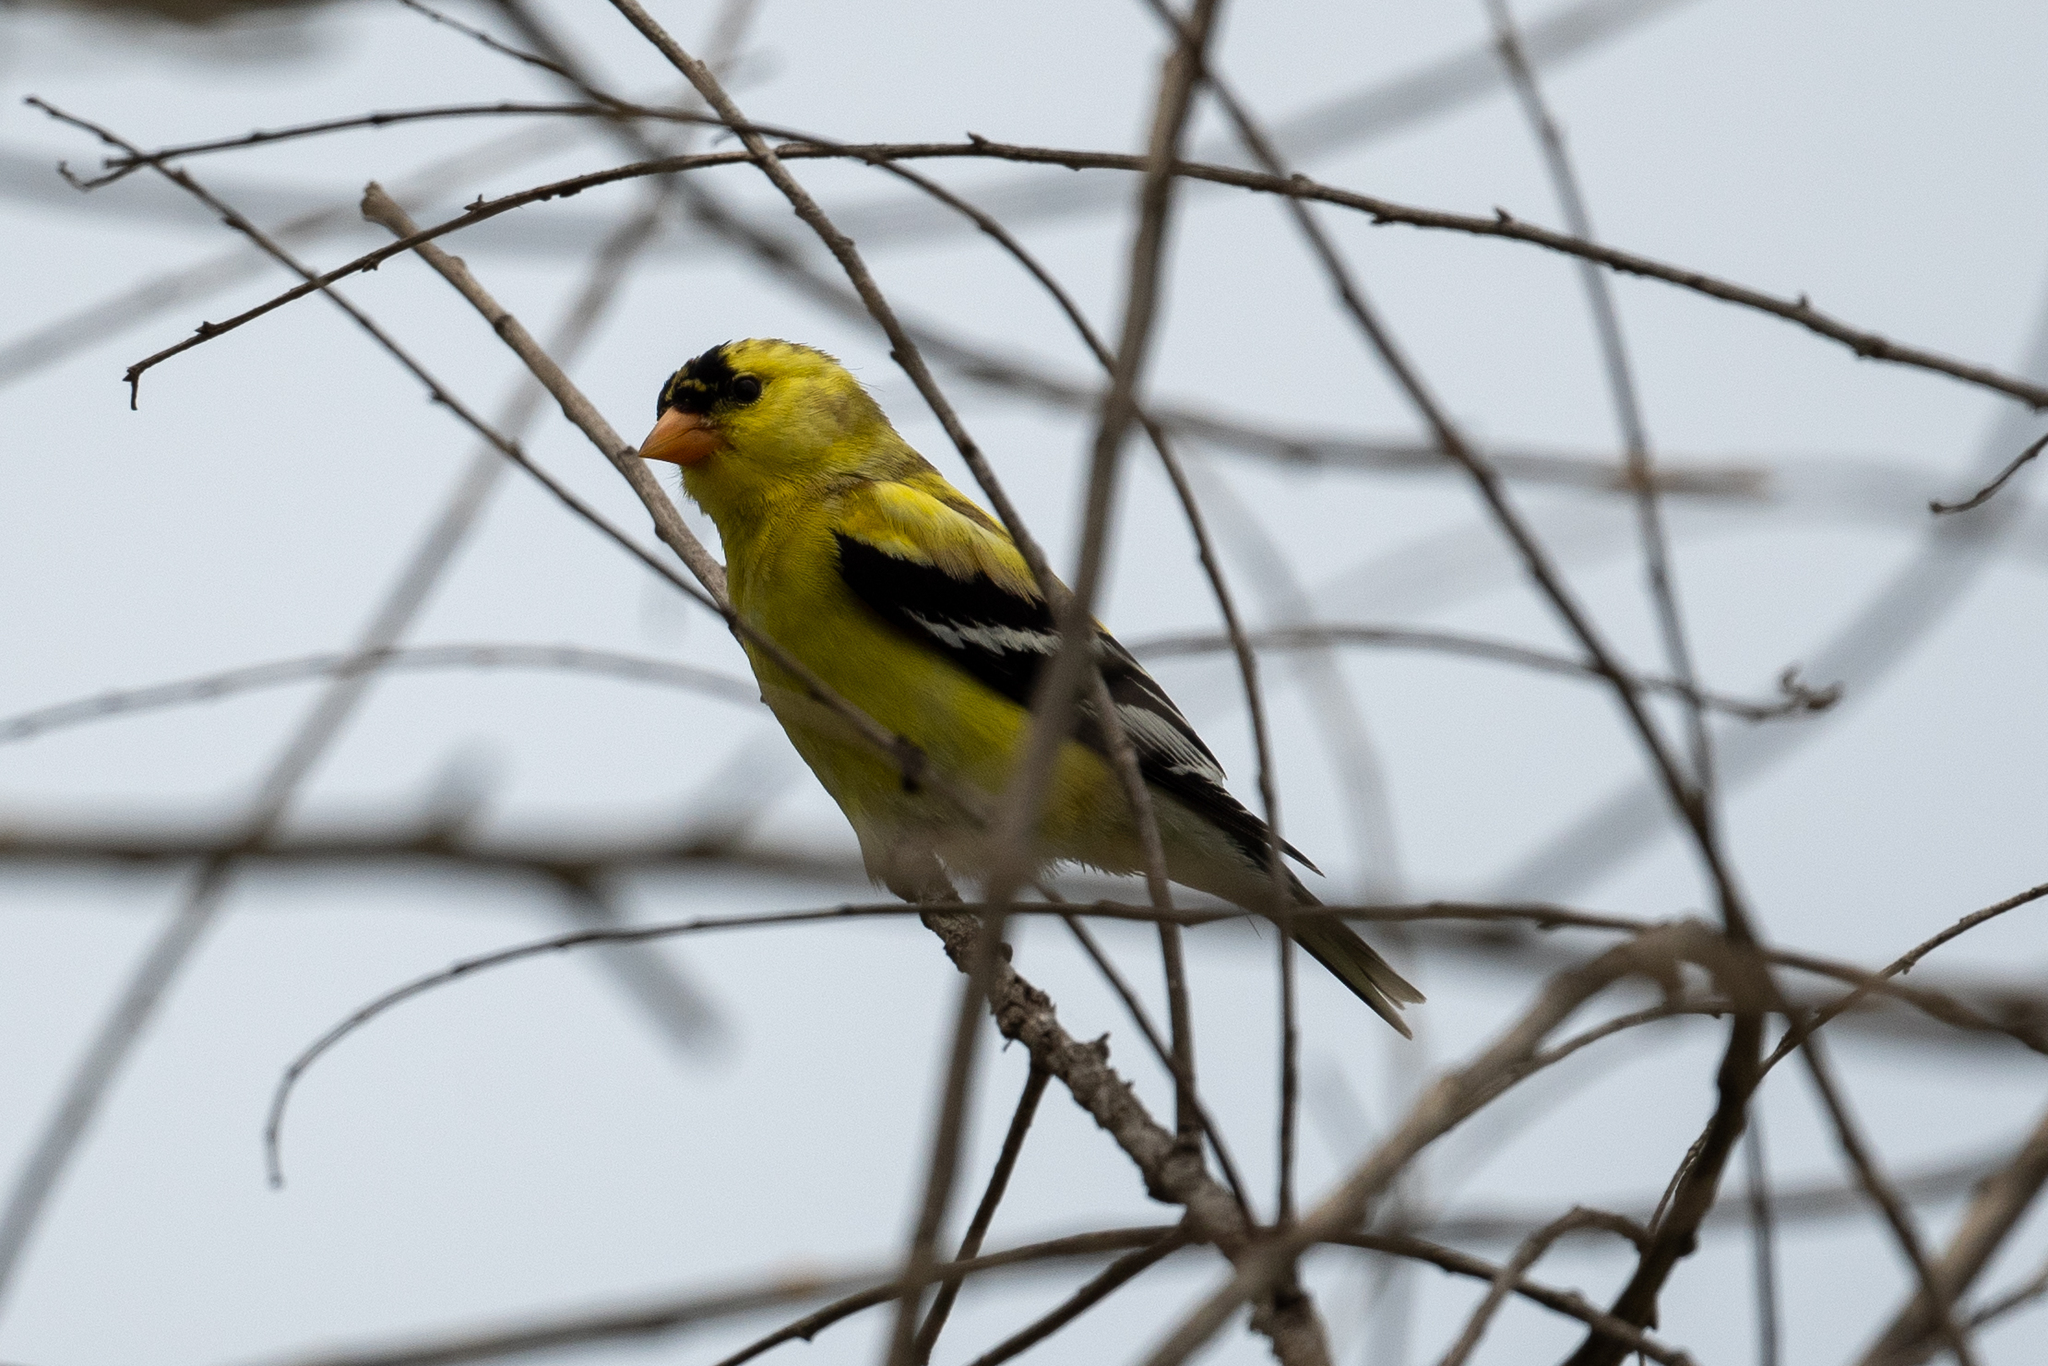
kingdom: Animalia
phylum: Chordata
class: Aves
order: Passeriformes
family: Fringillidae
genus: Spinus
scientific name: Spinus tristis
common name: American goldfinch
